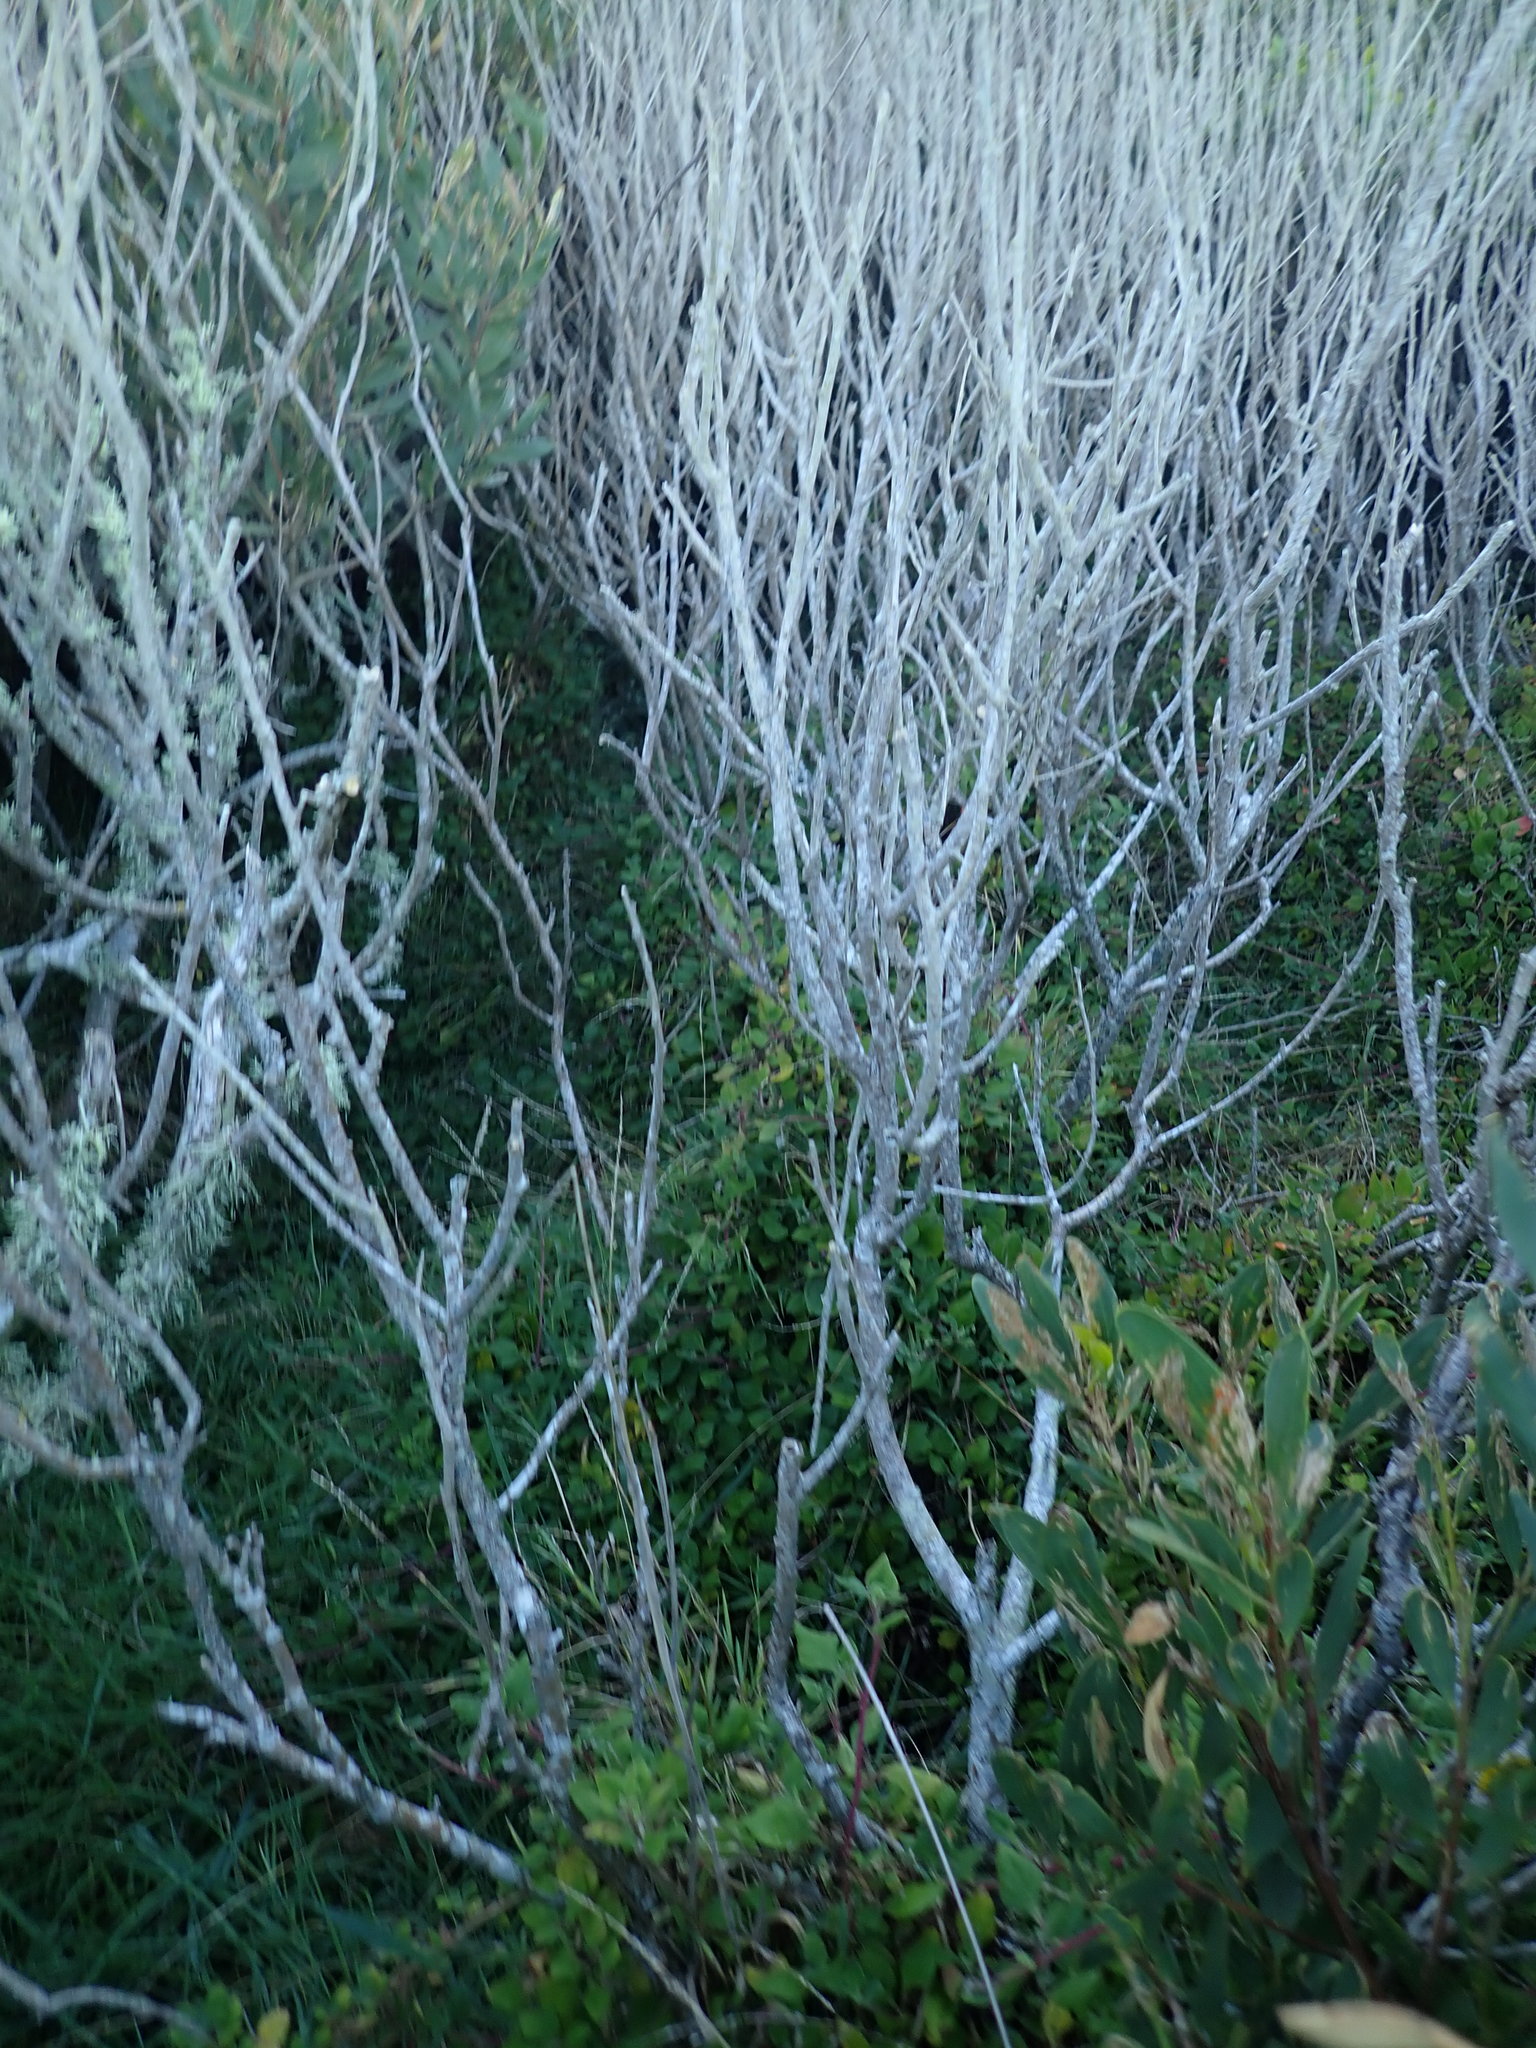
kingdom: Plantae
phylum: Tracheophyta
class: Magnoliopsida
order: Caryophyllales
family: Aizoaceae
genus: Tetragonia
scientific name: Tetragonia implexicoma
